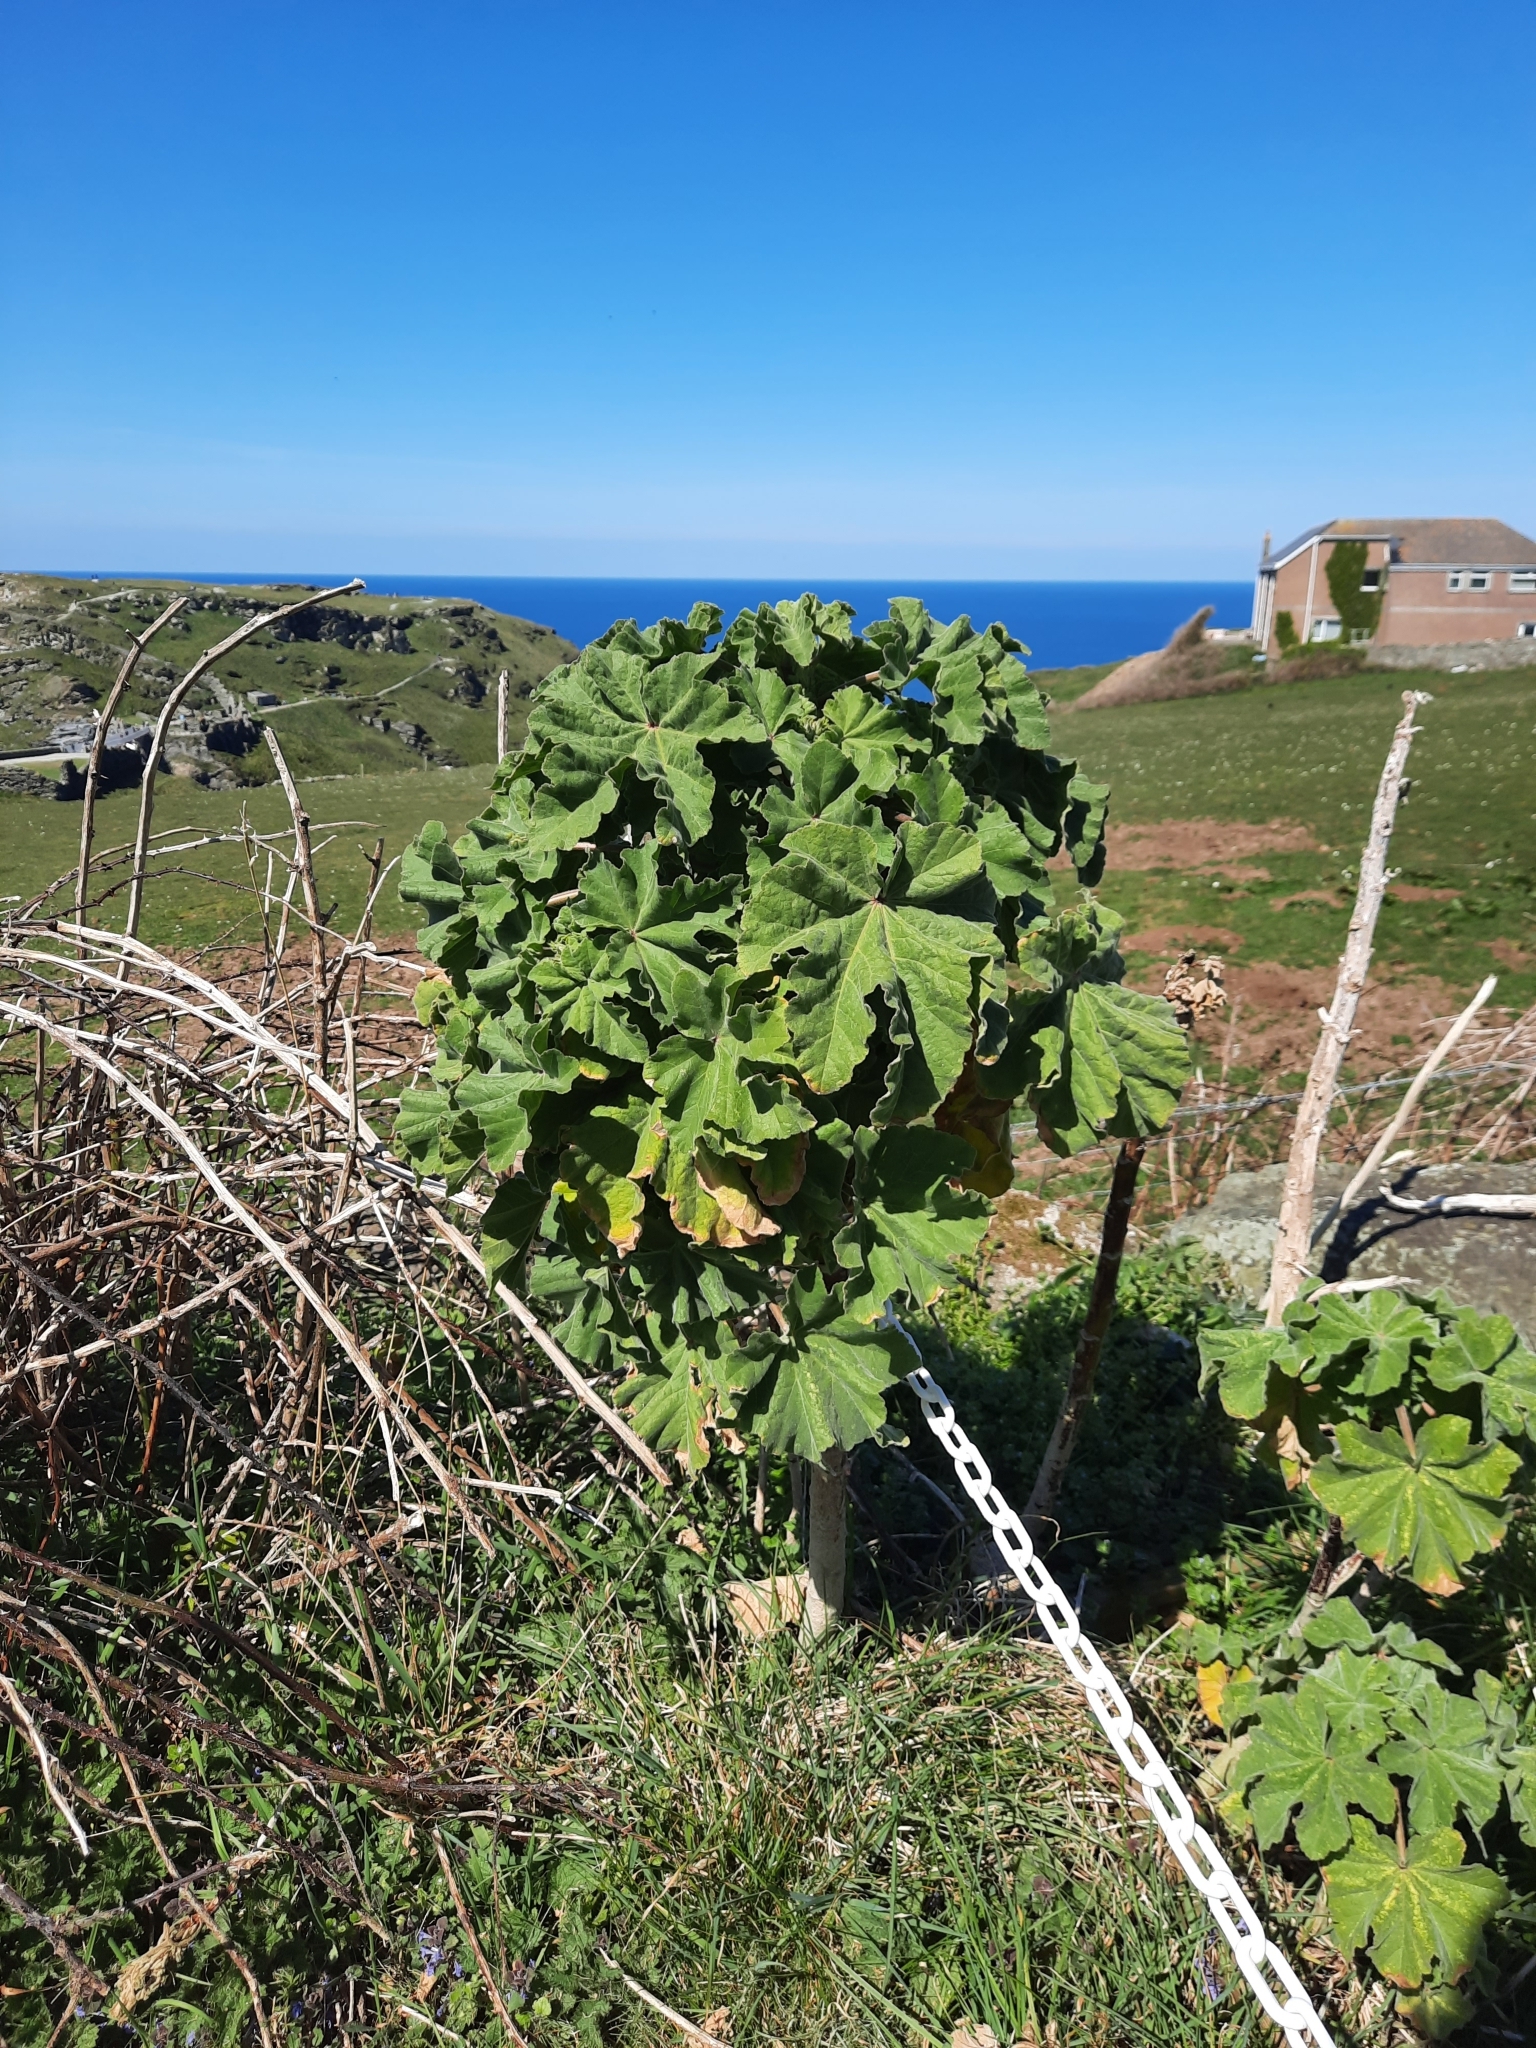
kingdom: Plantae
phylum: Tracheophyta
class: Magnoliopsida
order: Malvales
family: Malvaceae
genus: Malva
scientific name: Malva arborea
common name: Tree mallow
